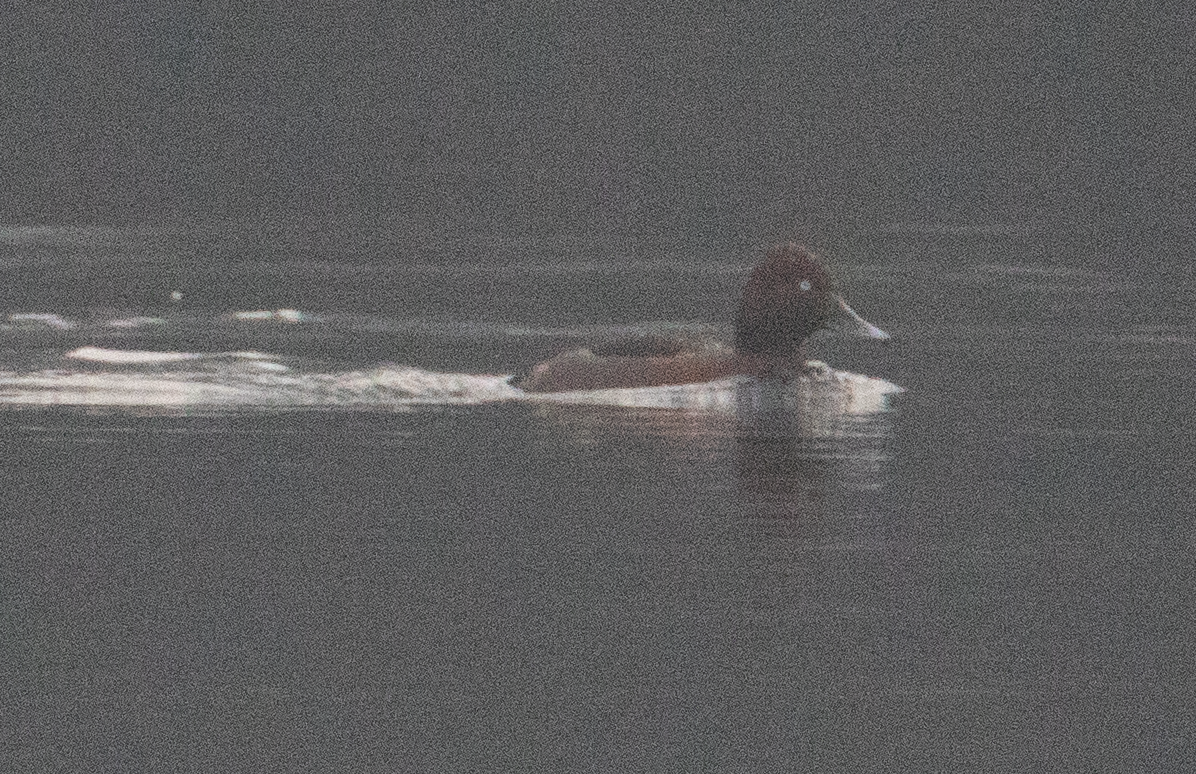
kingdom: Animalia
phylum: Chordata
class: Aves
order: Anseriformes
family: Anatidae
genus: Aythya
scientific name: Aythya nyroca
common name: Ferruginous duck
